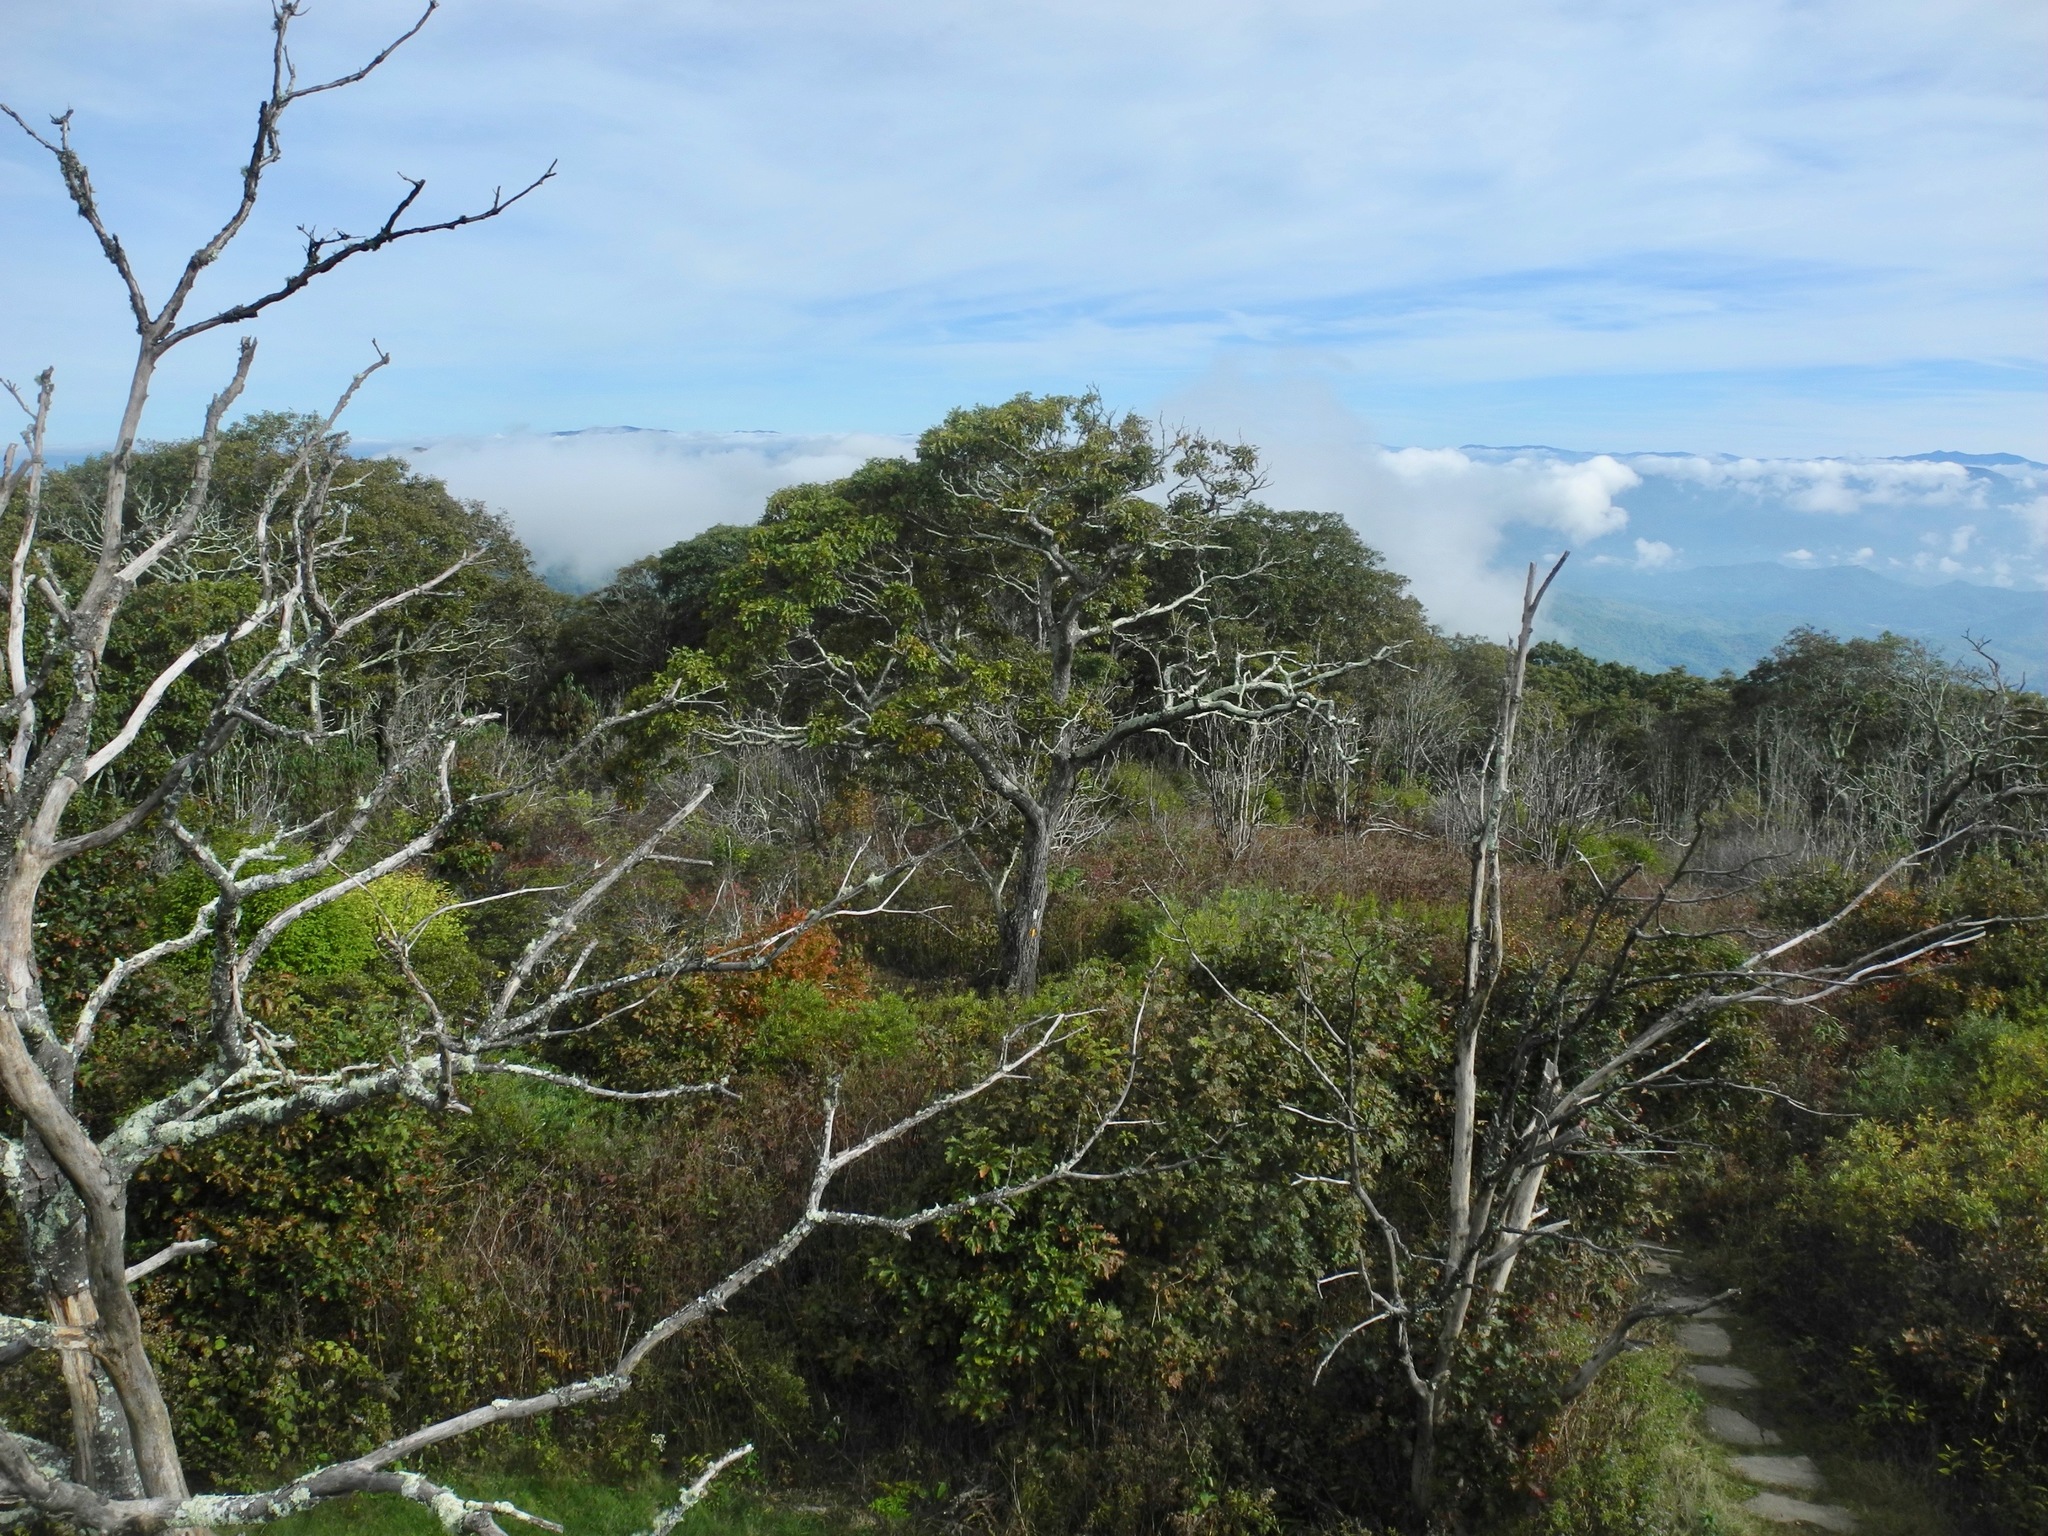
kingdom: Plantae
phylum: Tracheophyta
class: Magnoliopsida
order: Fagales
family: Fagaceae
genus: Quercus
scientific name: Quercus rubra
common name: Red oak
